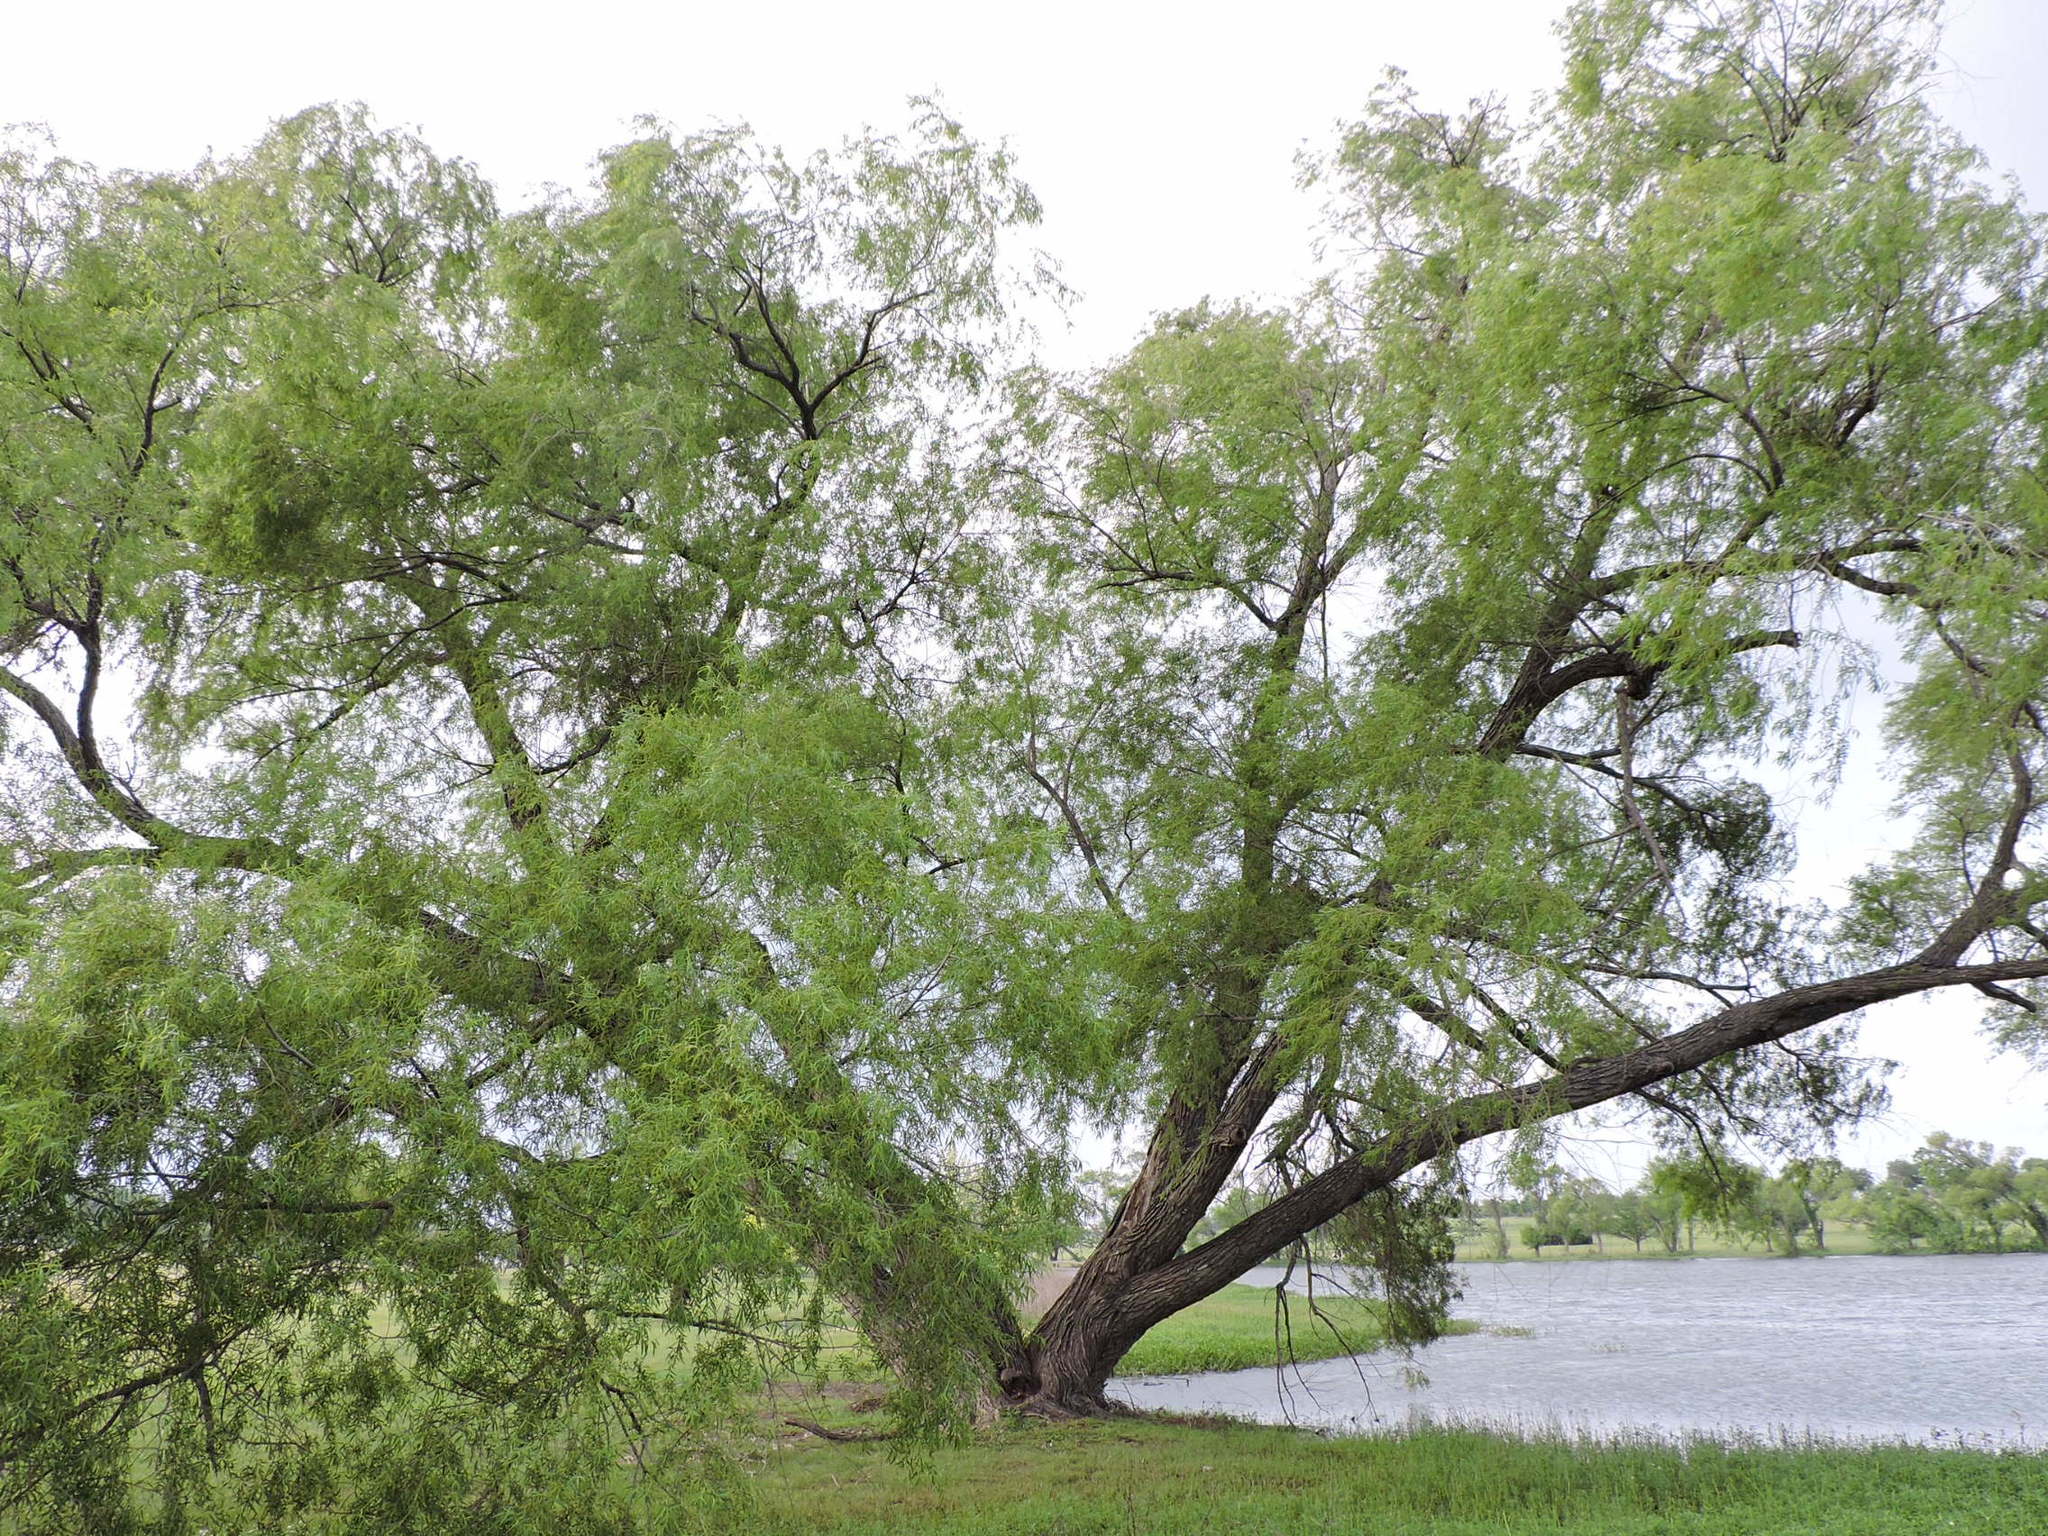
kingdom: Plantae
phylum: Tracheophyta
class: Magnoliopsida
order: Malpighiales
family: Salicaceae
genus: Salix
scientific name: Salix nigra
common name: Black willow
